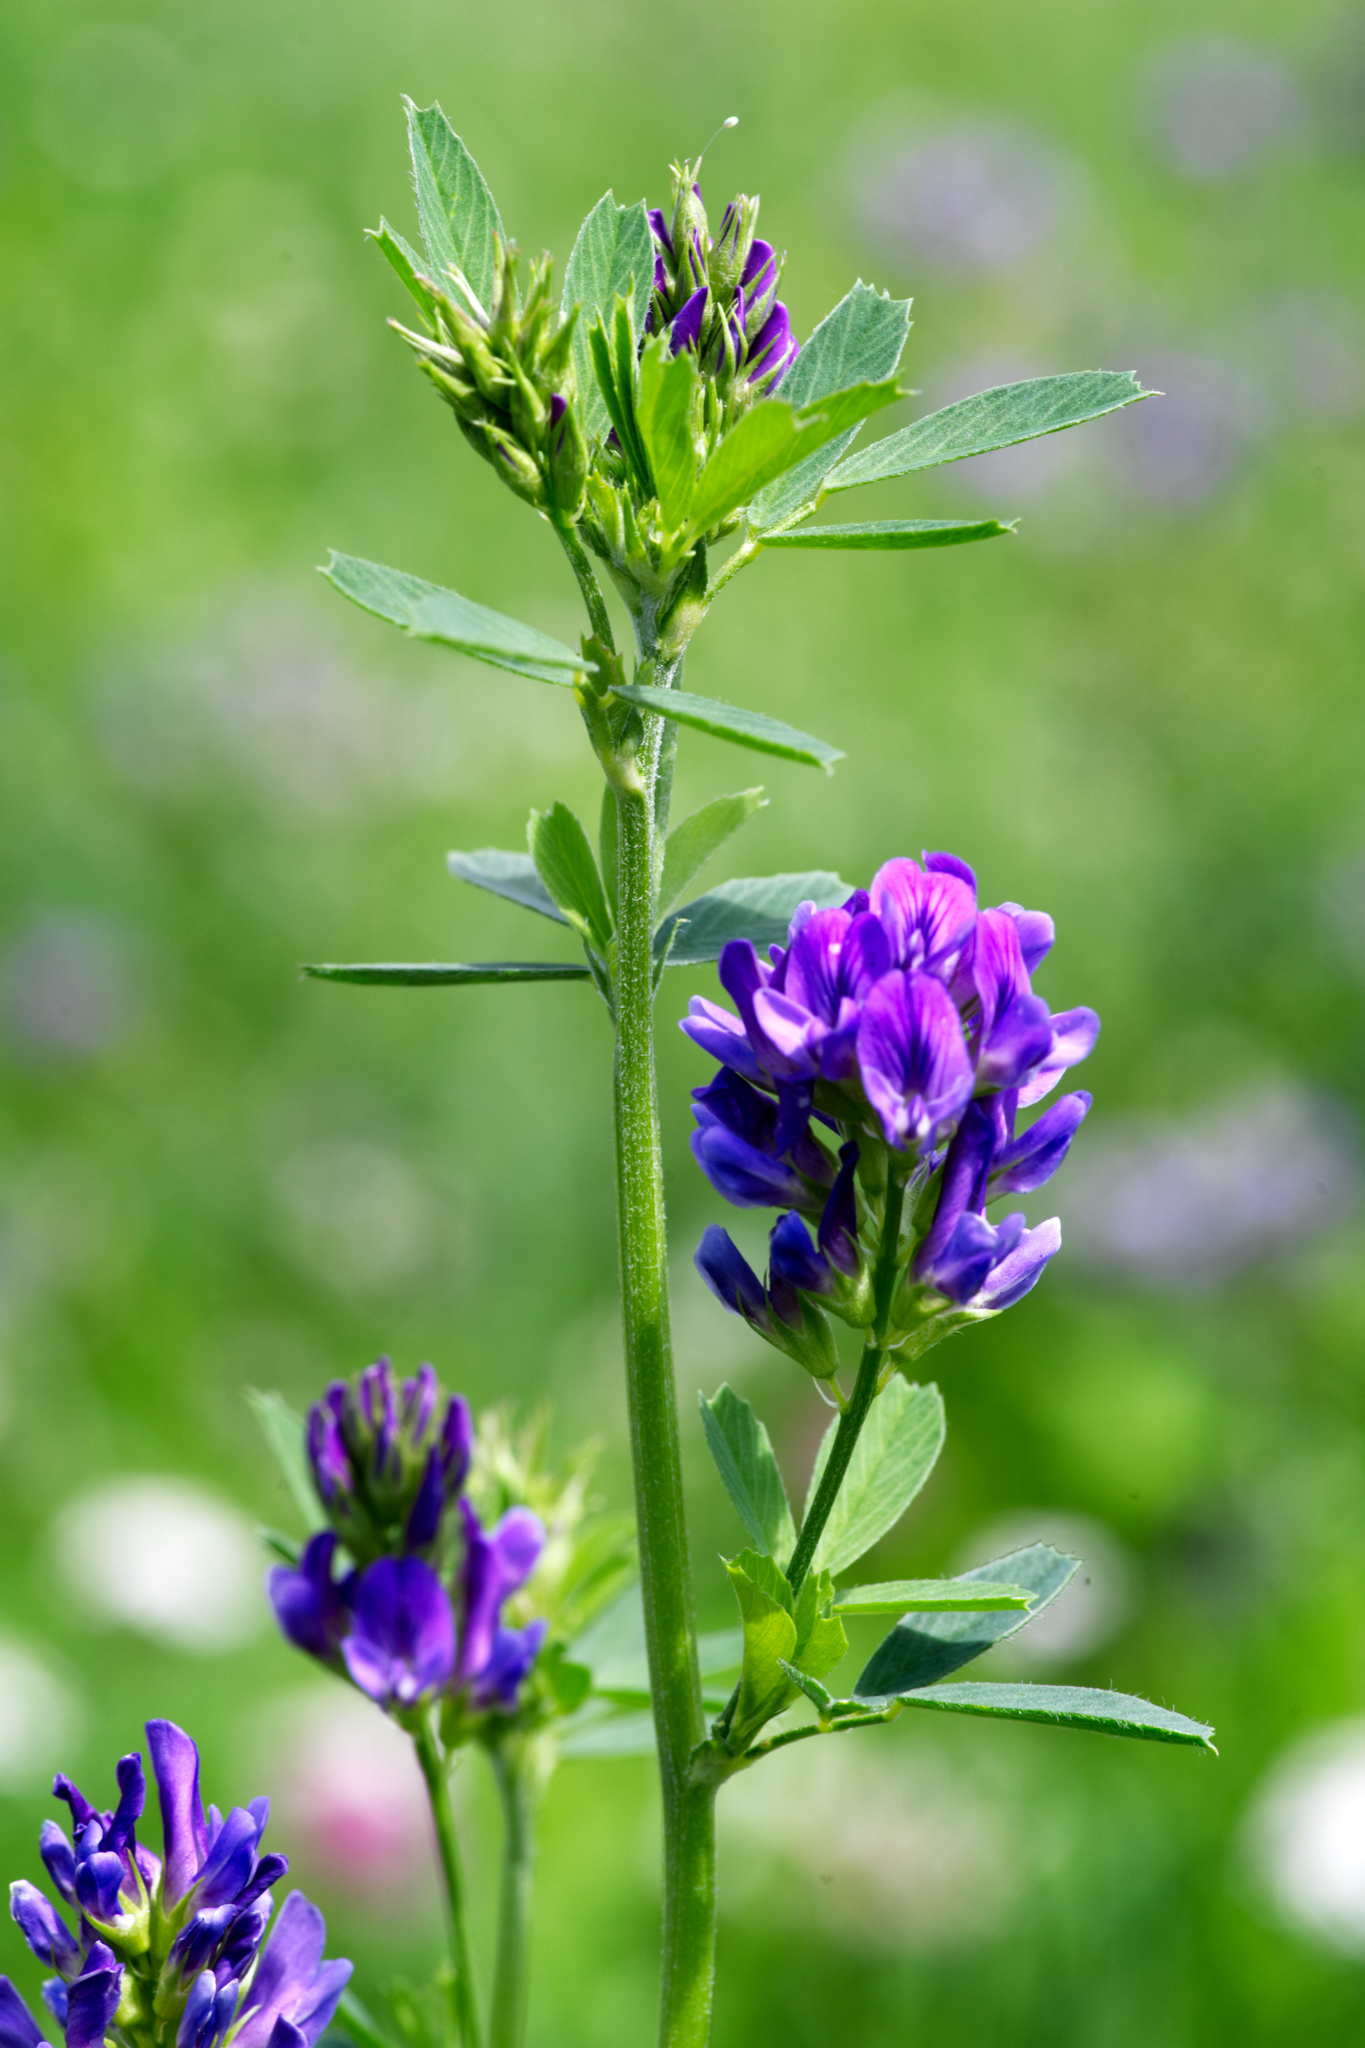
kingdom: Plantae
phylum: Tracheophyta
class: Magnoliopsida
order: Fabales
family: Fabaceae
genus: Medicago
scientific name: Medicago sativa
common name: Alfalfa
